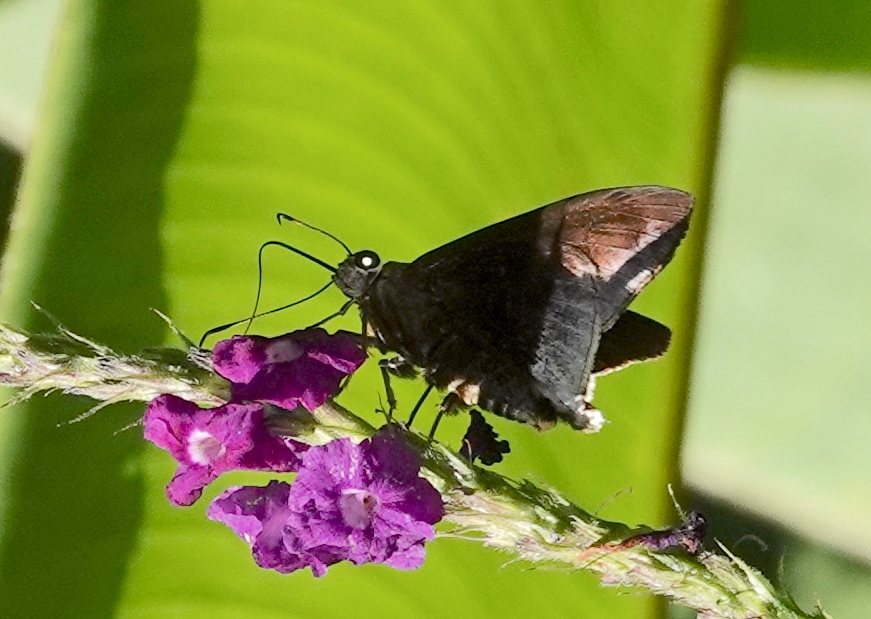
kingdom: Animalia
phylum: Arthropoda
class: Insecta
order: Lepidoptera
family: Hesperiidae
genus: Astraptes
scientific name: Astraptes alardus
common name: Frosted flasher
